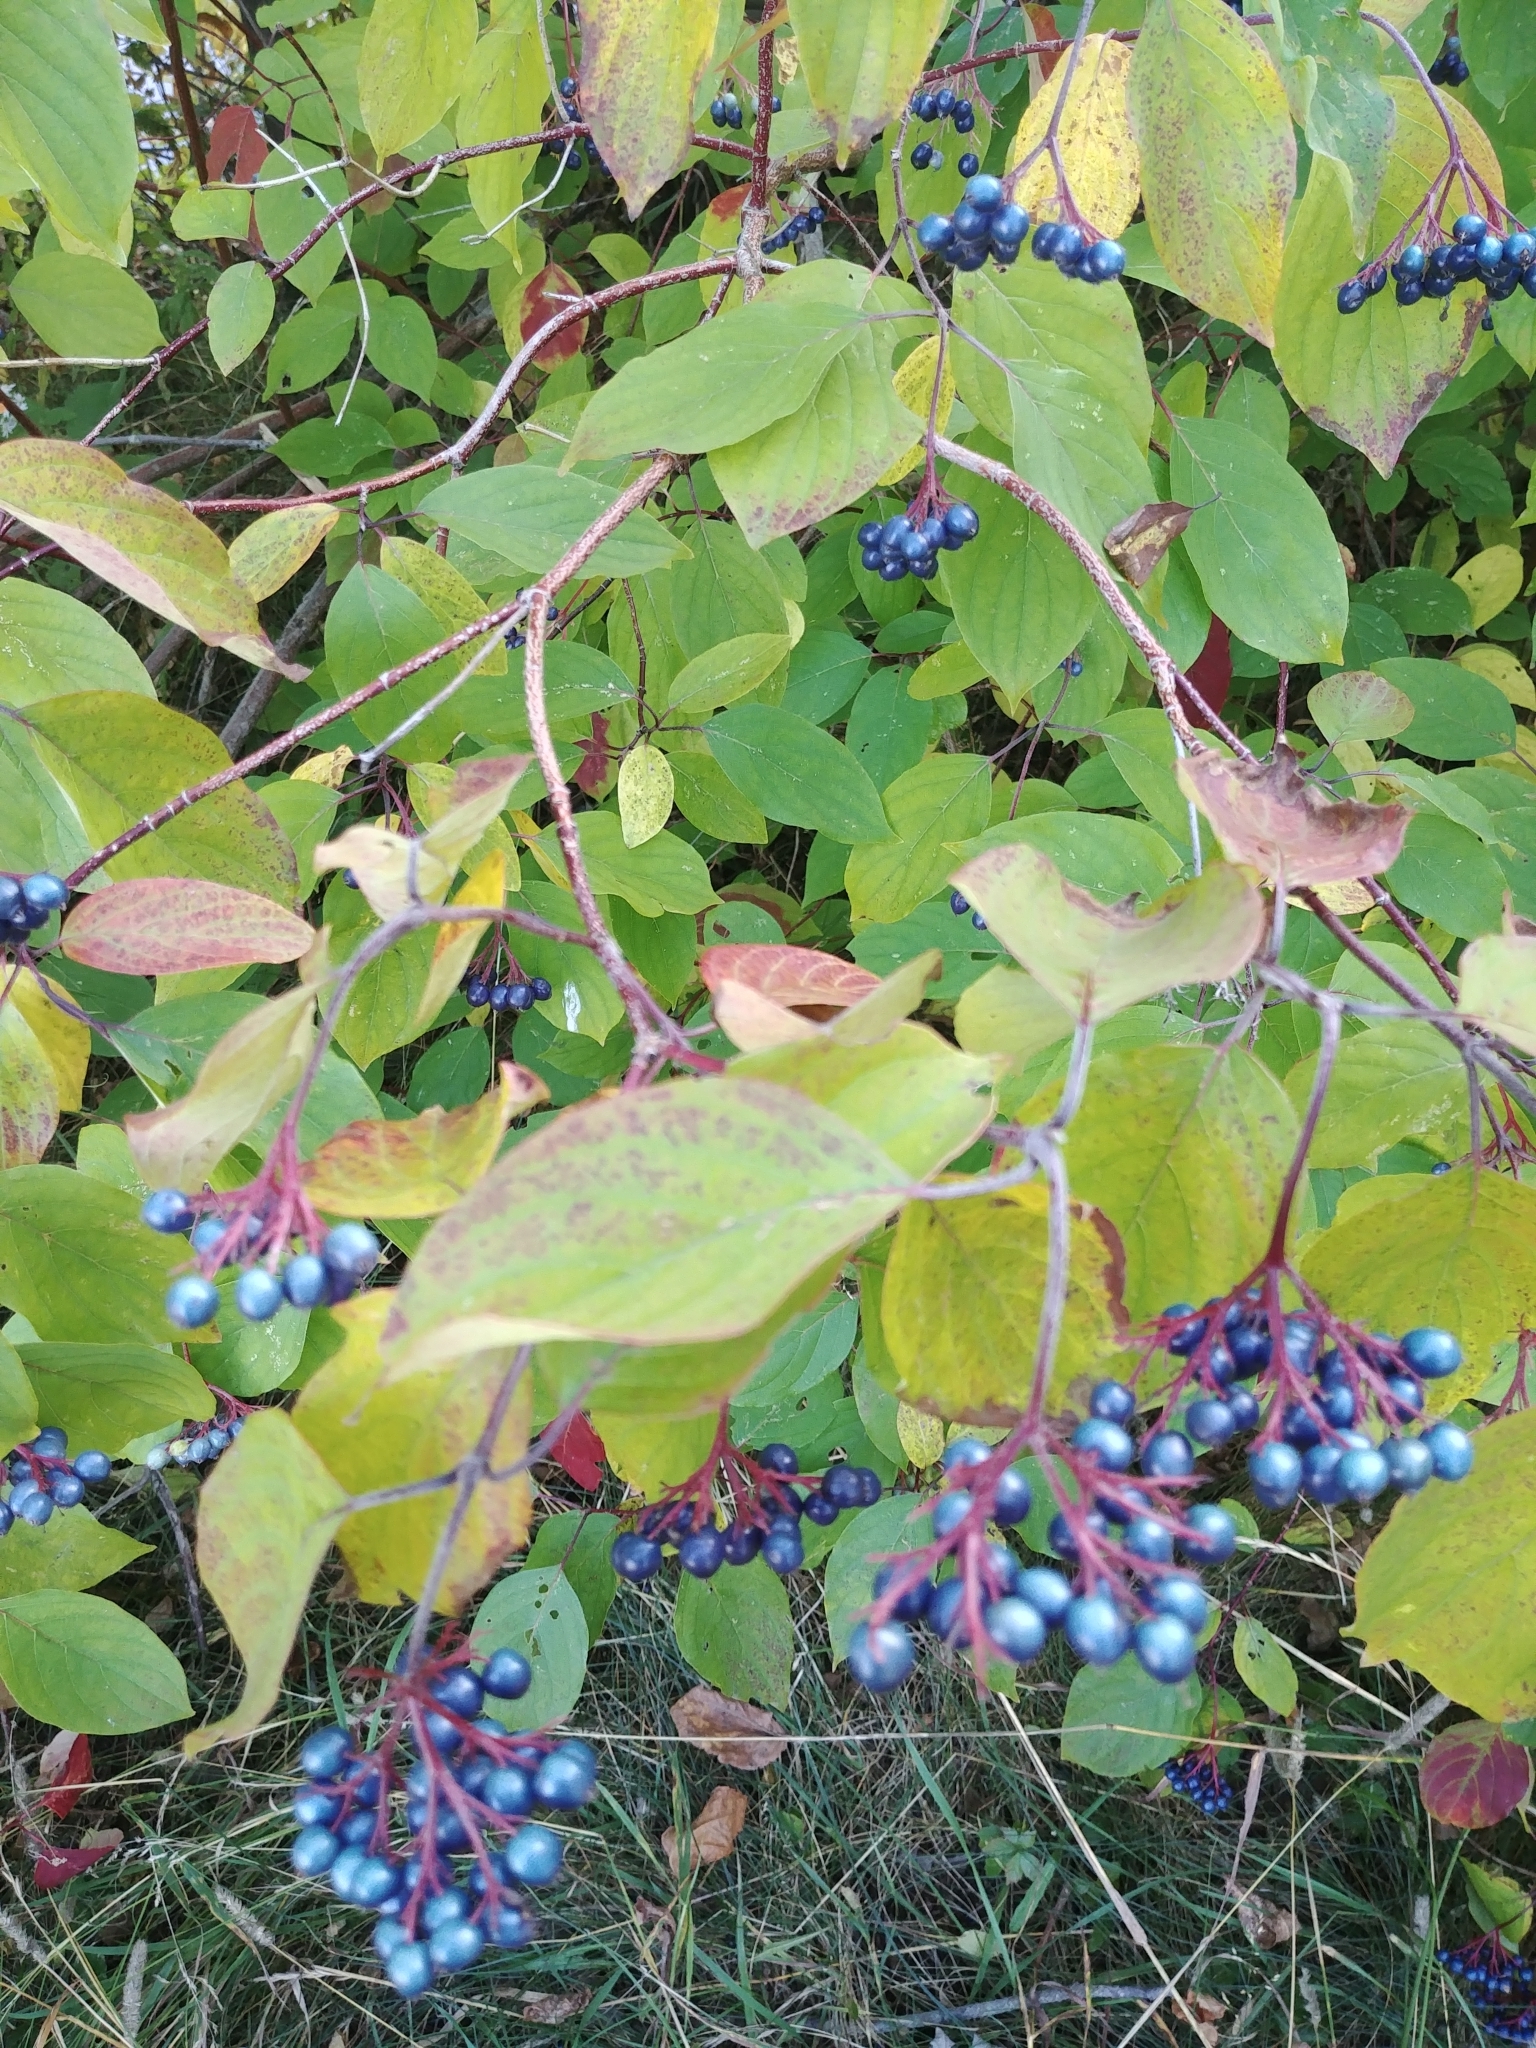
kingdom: Plantae
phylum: Tracheophyta
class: Magnoliopsida
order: Cornales
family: Cornaceae
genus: Cornus
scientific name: Cornus amomum
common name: Silky dogwood
